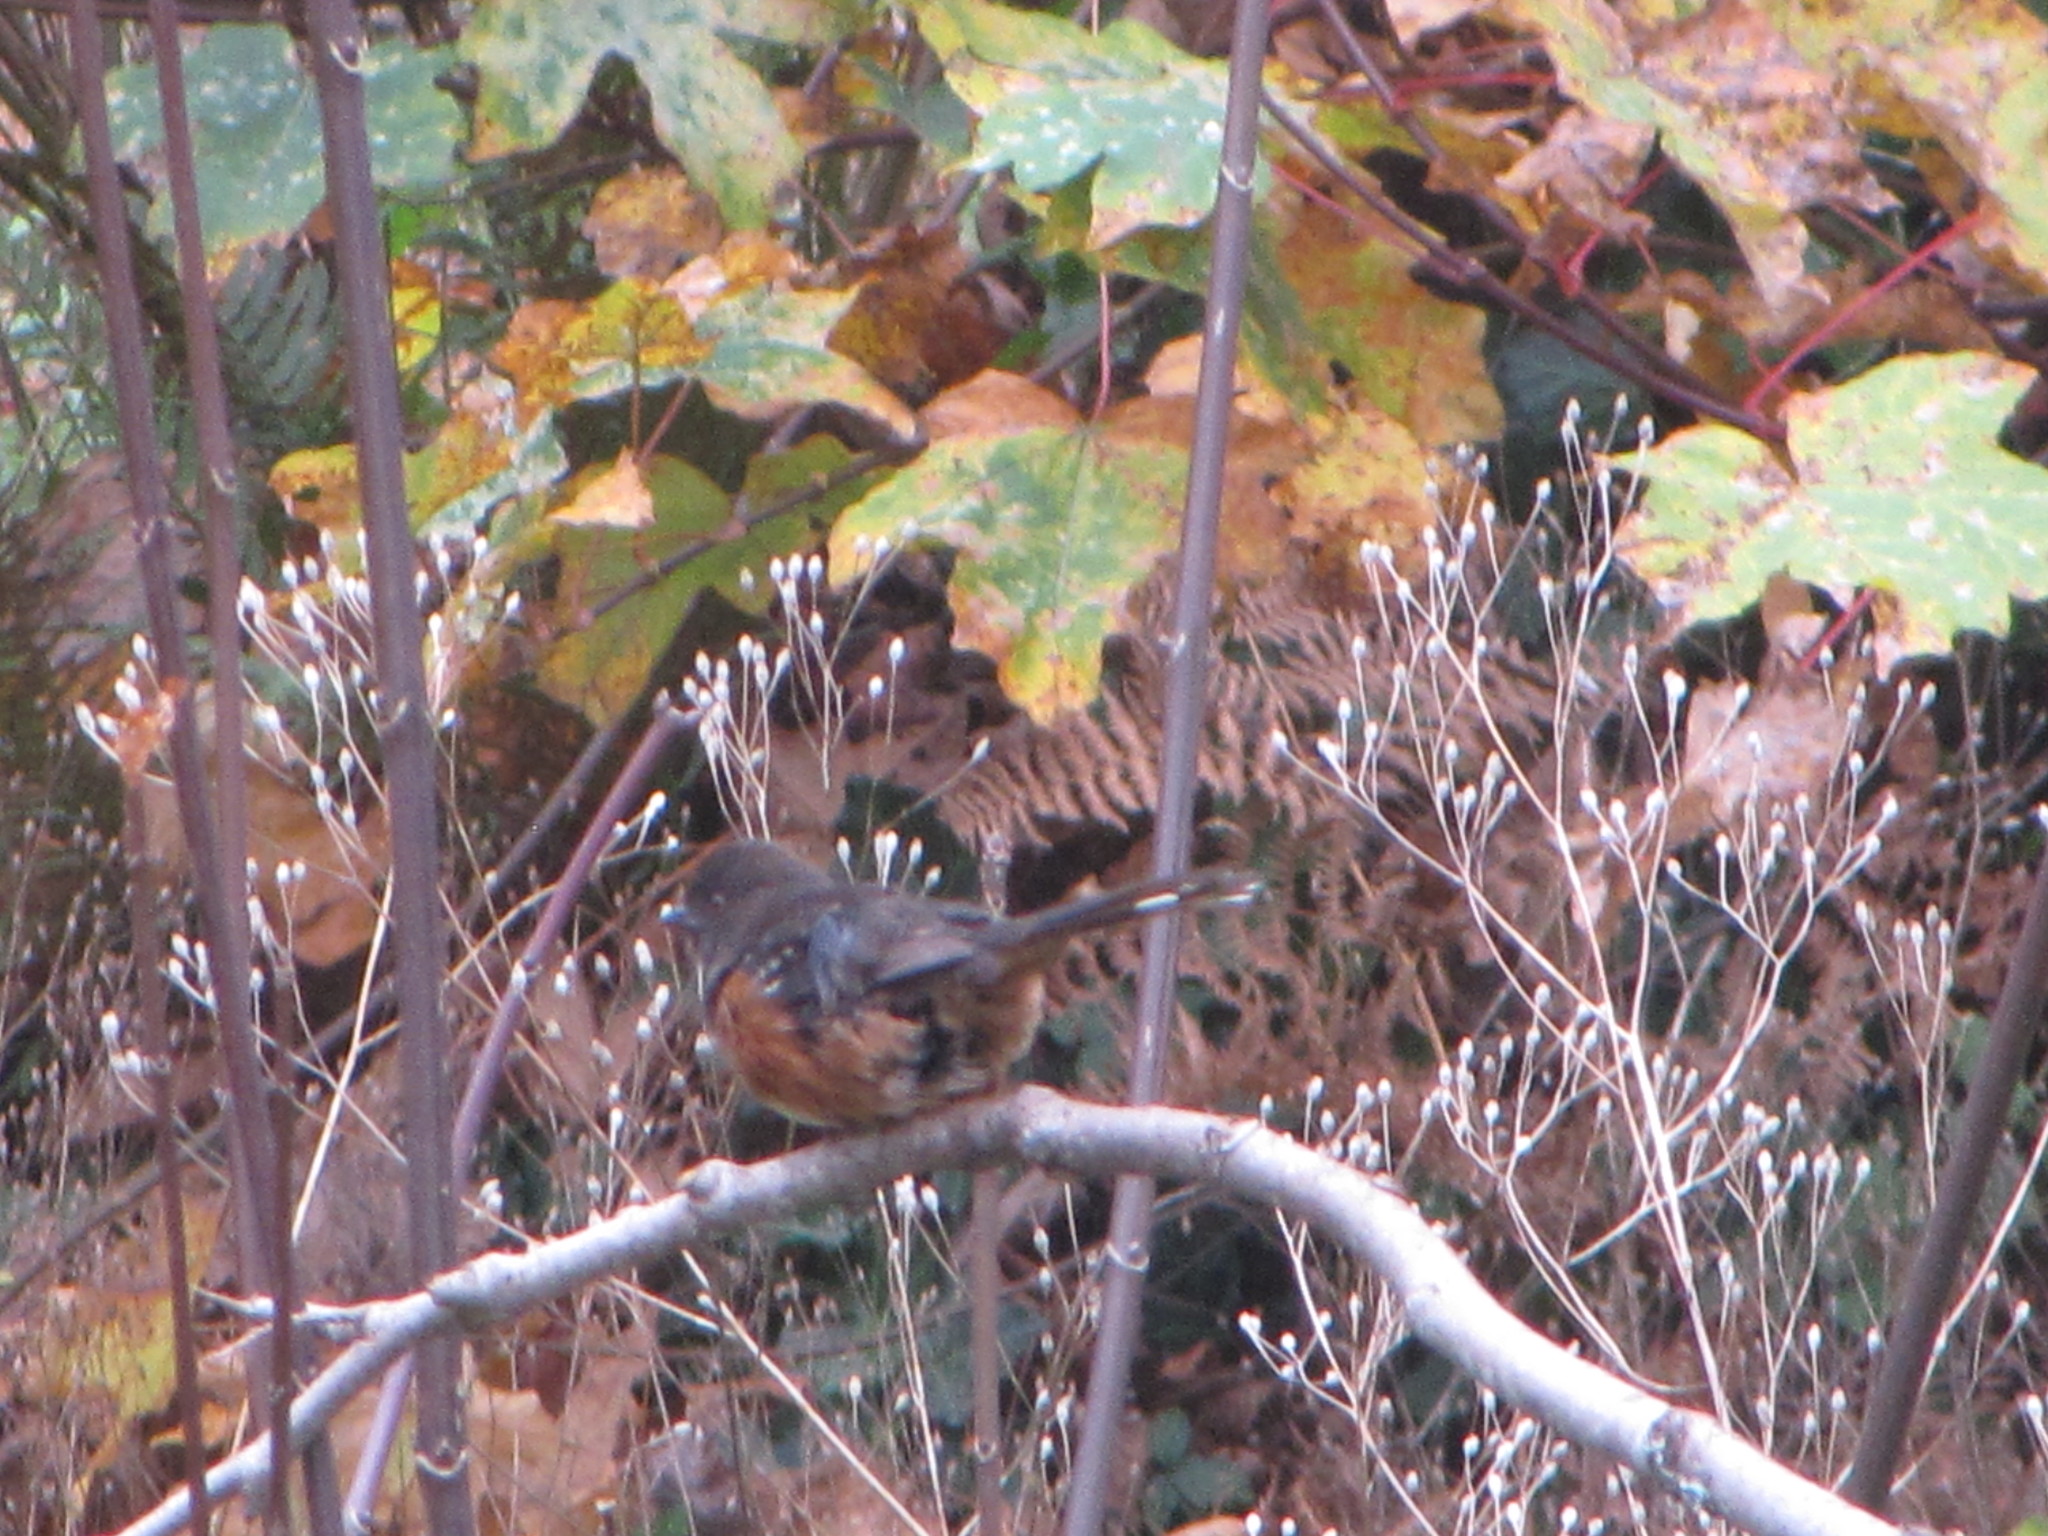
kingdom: Animalia
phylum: Chordata
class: Aves
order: Passeriformes
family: Passerellidae
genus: Pipilo
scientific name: Pipilo maculatus
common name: Spotted towhee
